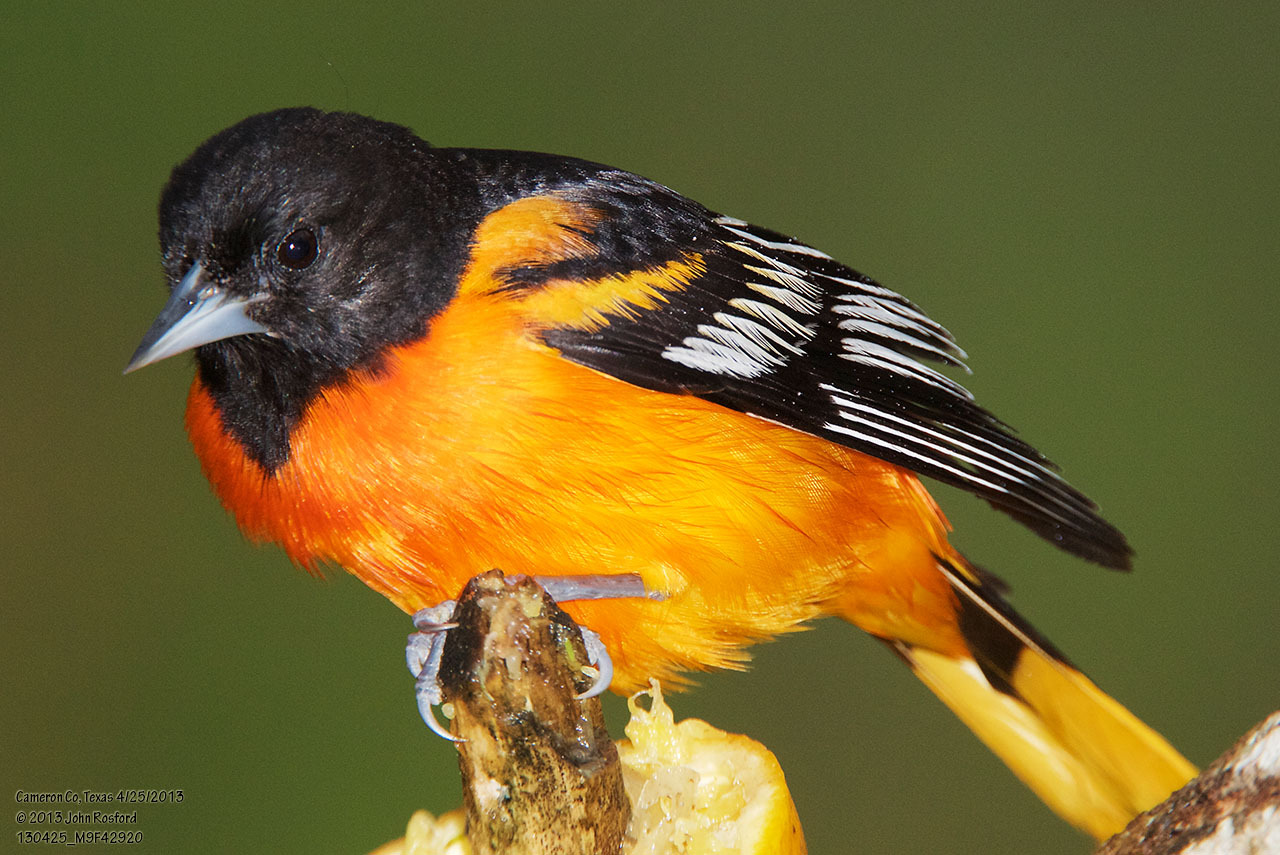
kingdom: Animalia
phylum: Chordata
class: Aves
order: Passeriformes
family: Icteridae
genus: Icterus
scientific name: Icterus galbula
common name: Baltimore oriole
